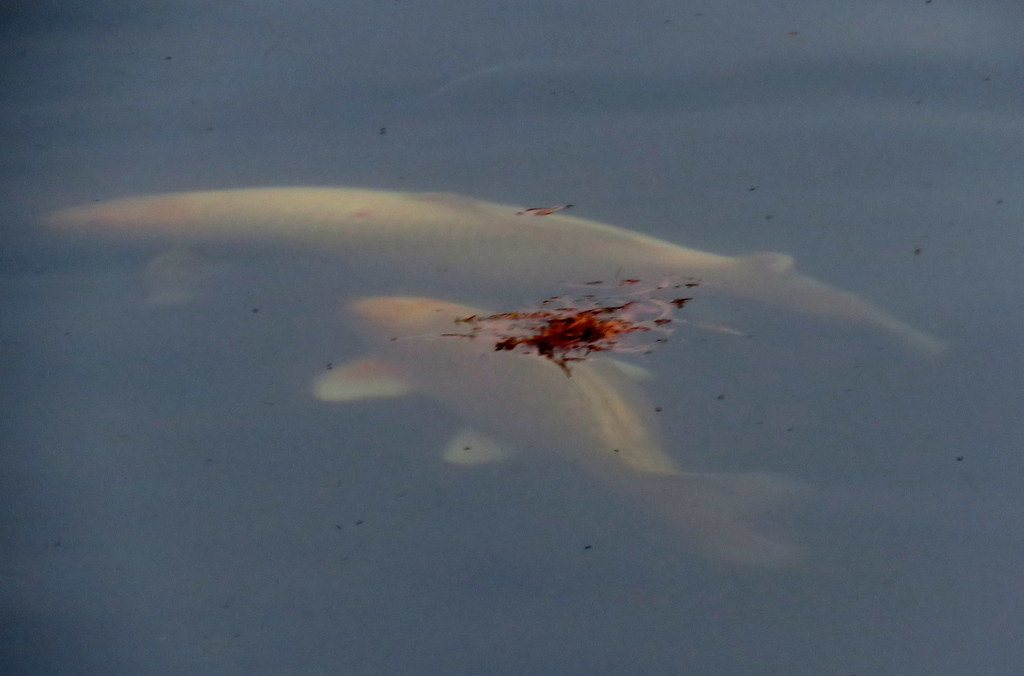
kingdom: Animalia
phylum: Chordata
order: Cypriniformes
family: Cyprinidae
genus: Cyprinus
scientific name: Cyprinus rubrofuscus
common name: Koi
